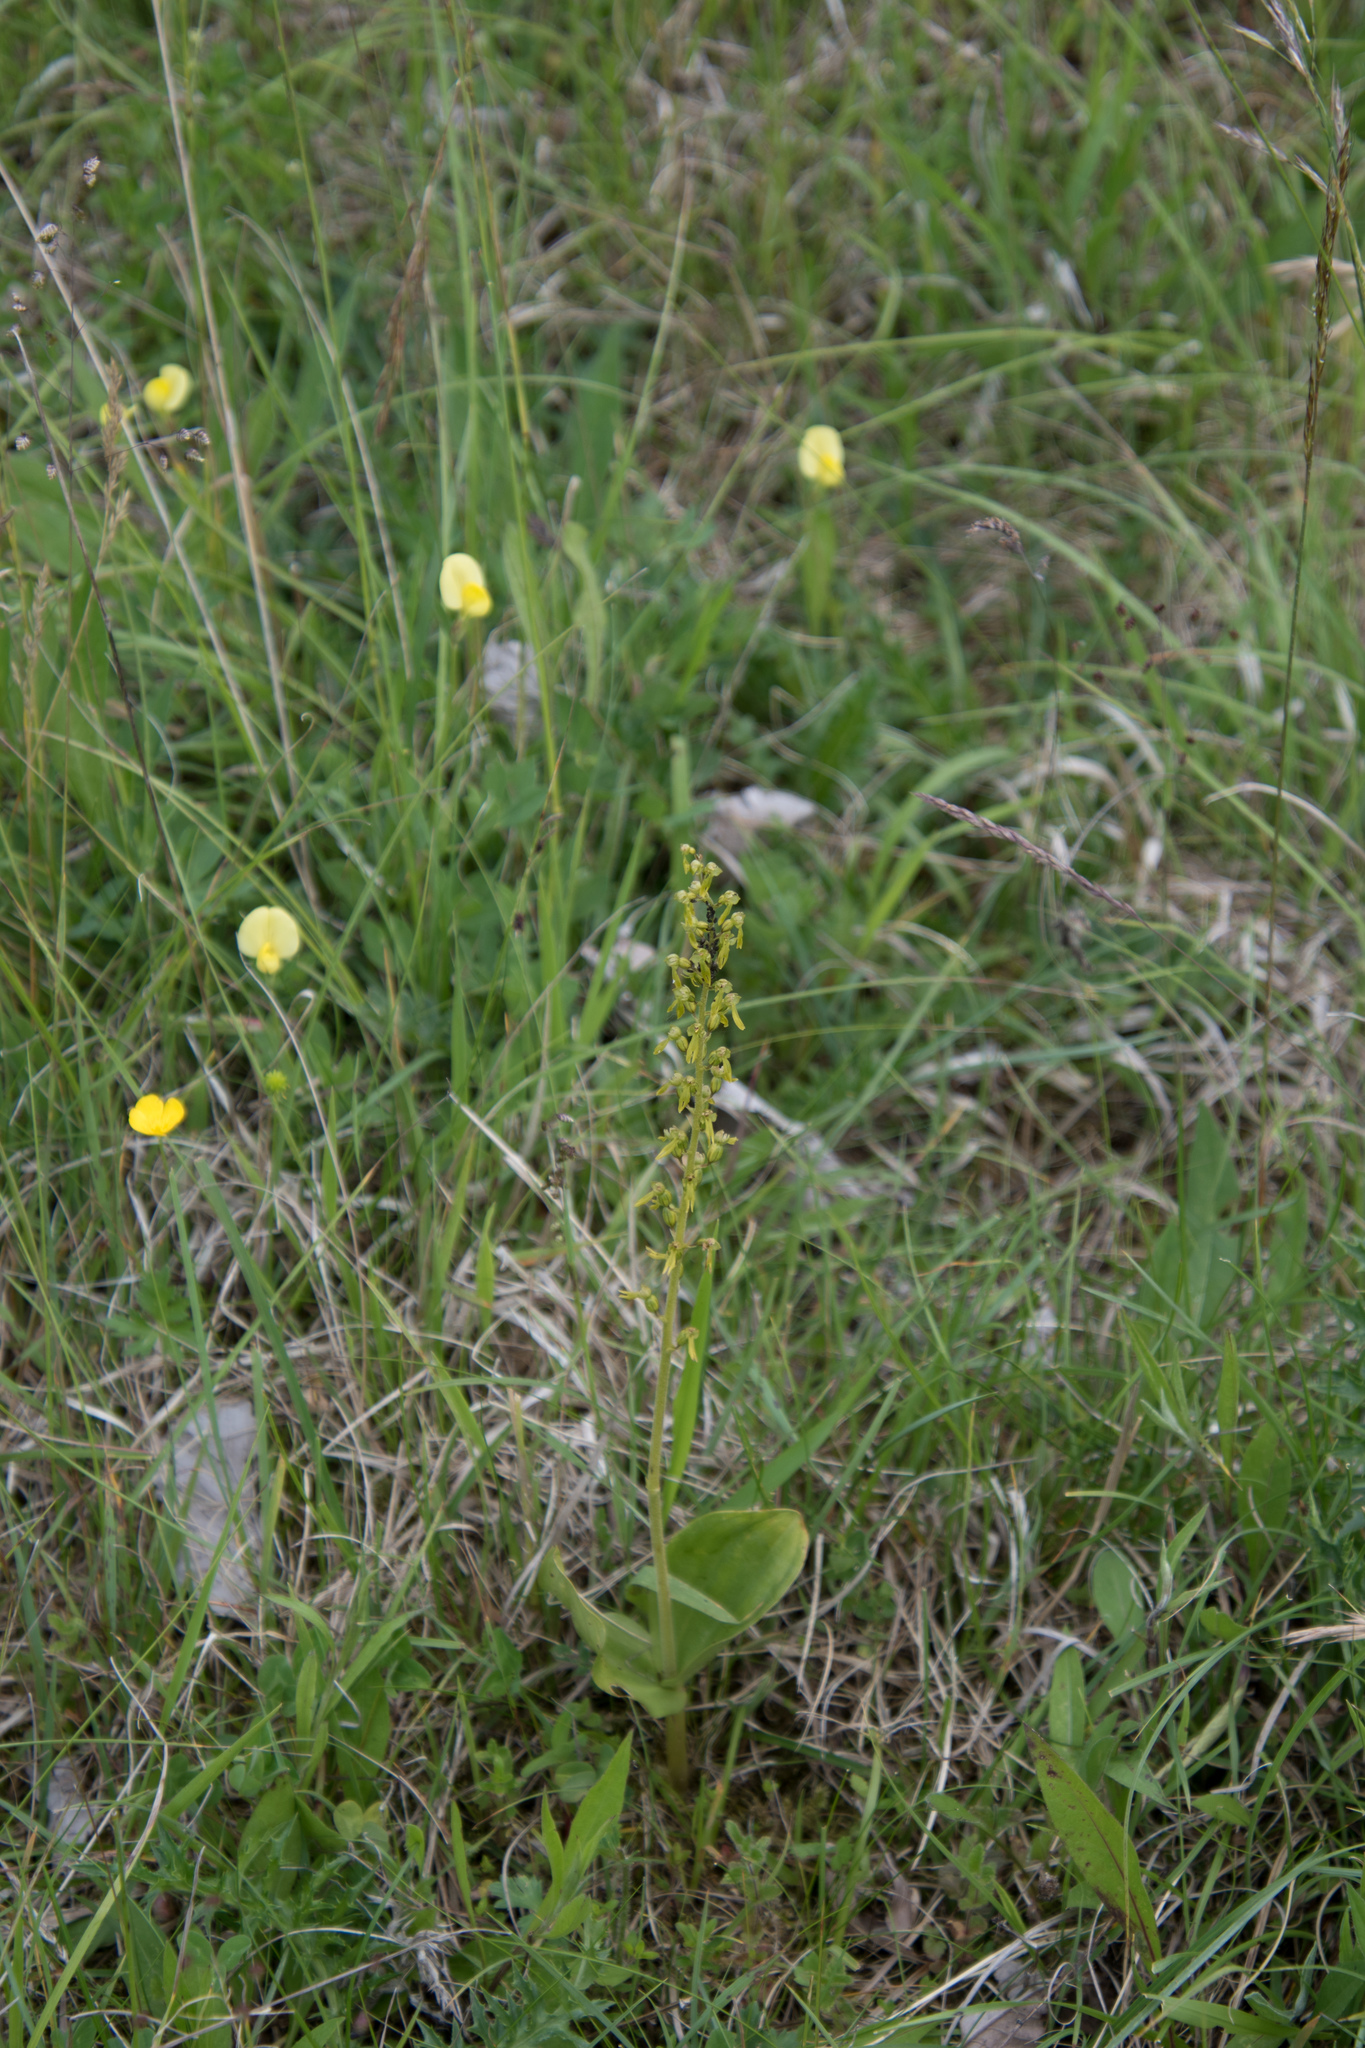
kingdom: Plantae
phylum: Tracheophyta
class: Liliopsida
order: Asparagales
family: Orchidaceae
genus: Neottia
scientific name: Neottia ovata
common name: Common twayblade
